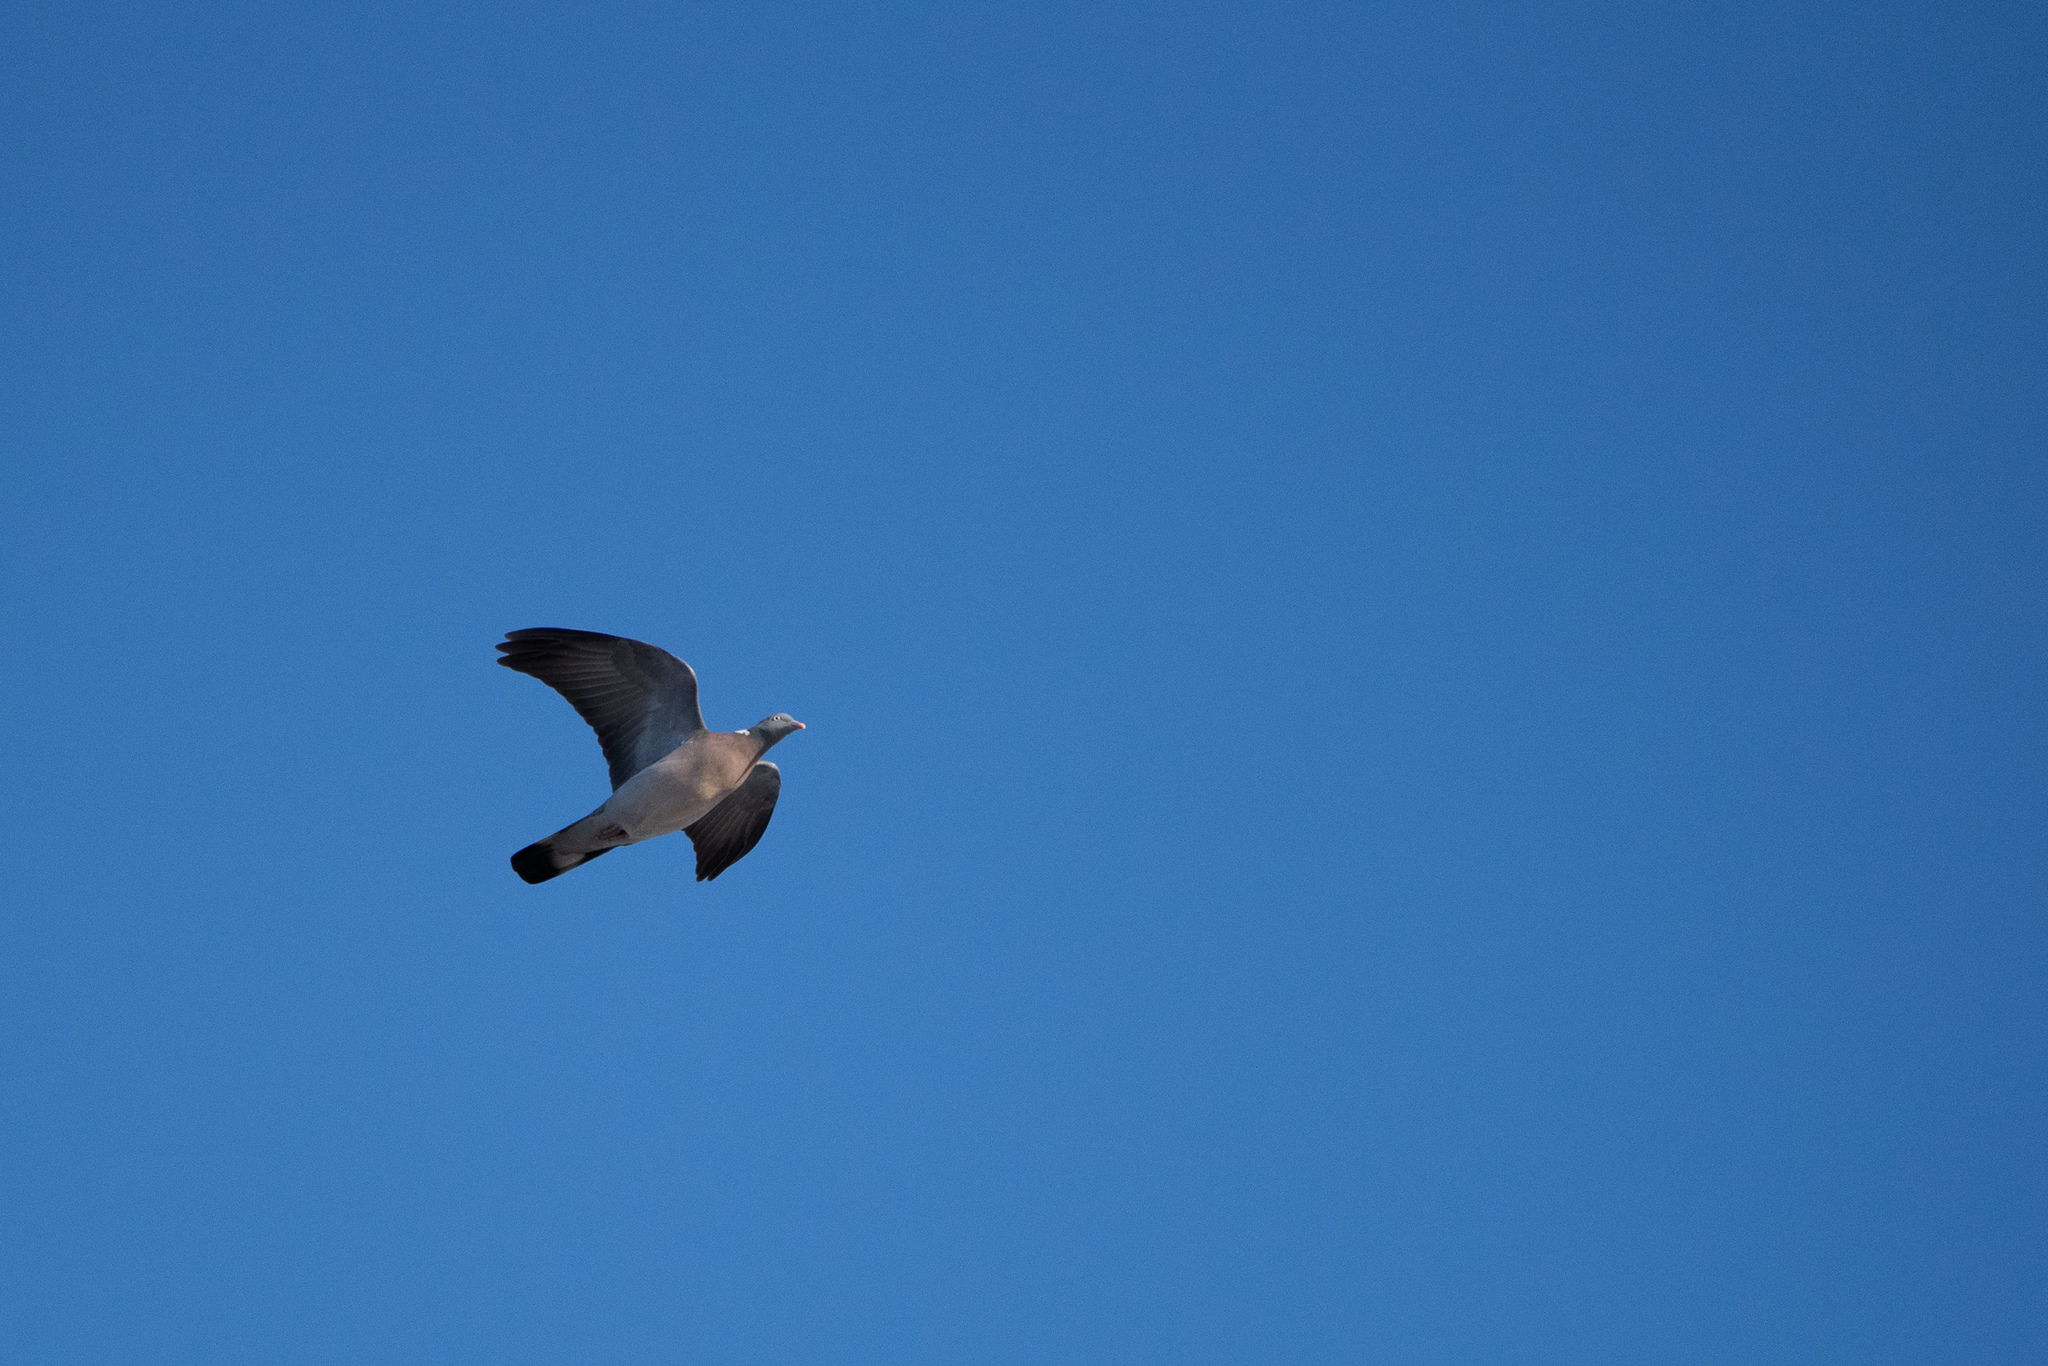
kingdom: Animalia
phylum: Chordata
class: Aves
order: Columbiformes
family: Columbidae
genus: Columba
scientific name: Columba palumbus
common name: Common wood pigeon
